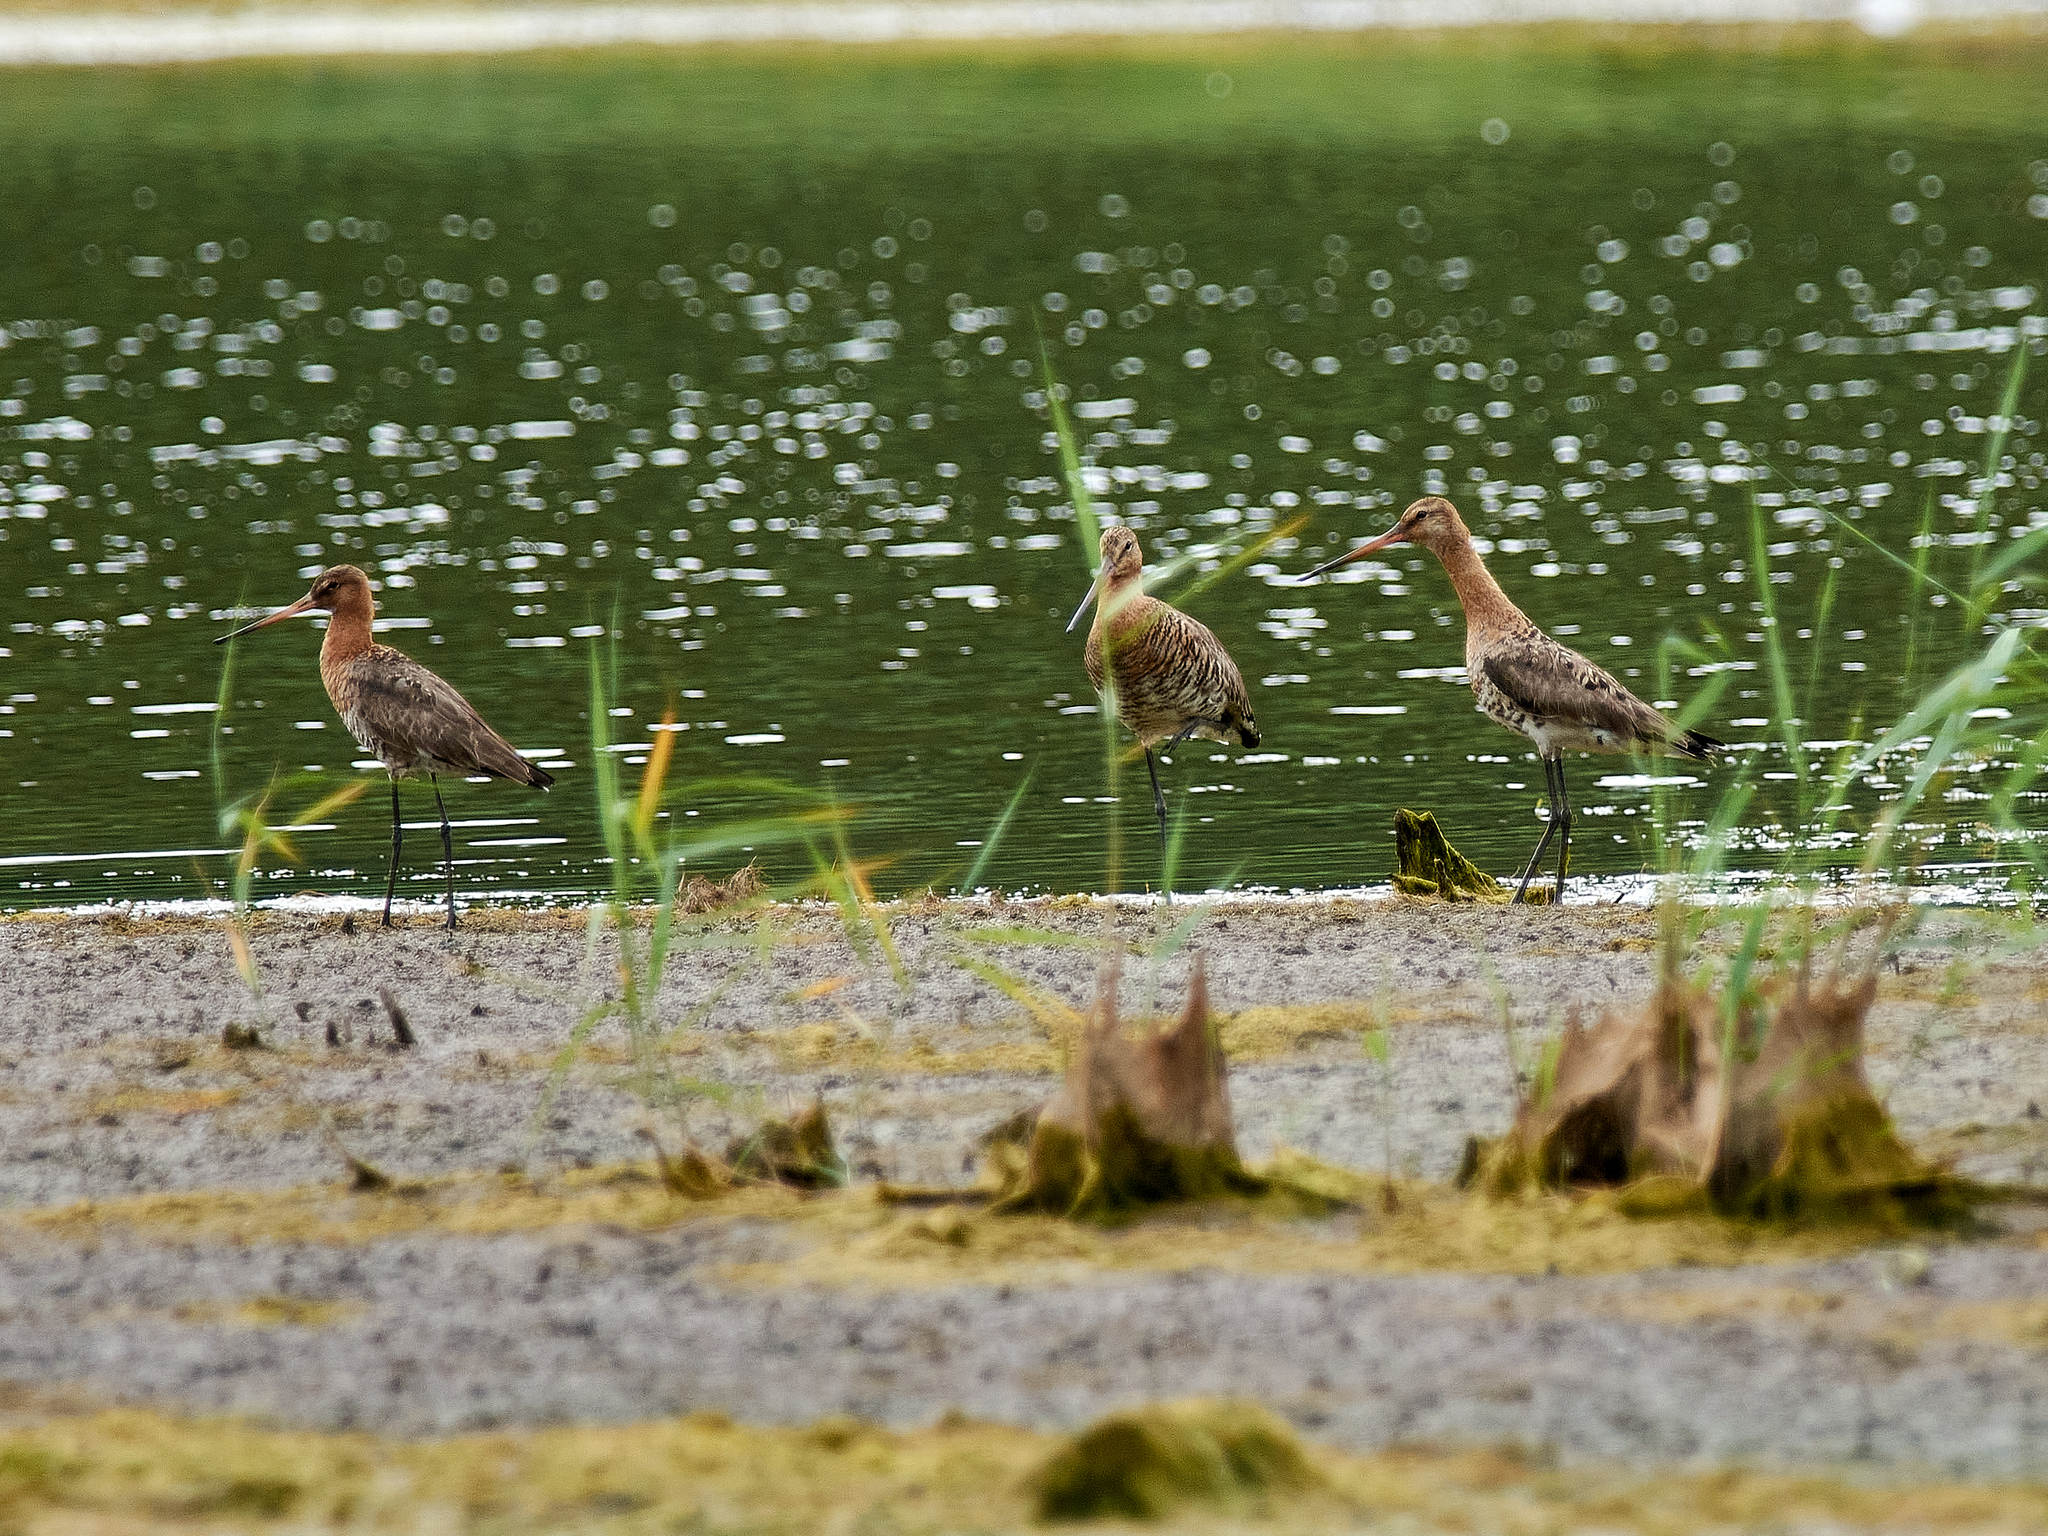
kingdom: Animalia
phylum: Chordata
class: Aves
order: Charadriiformes
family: Scolopacidae
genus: Limosa
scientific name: Limosa limosa
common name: Black-tailed godwit
